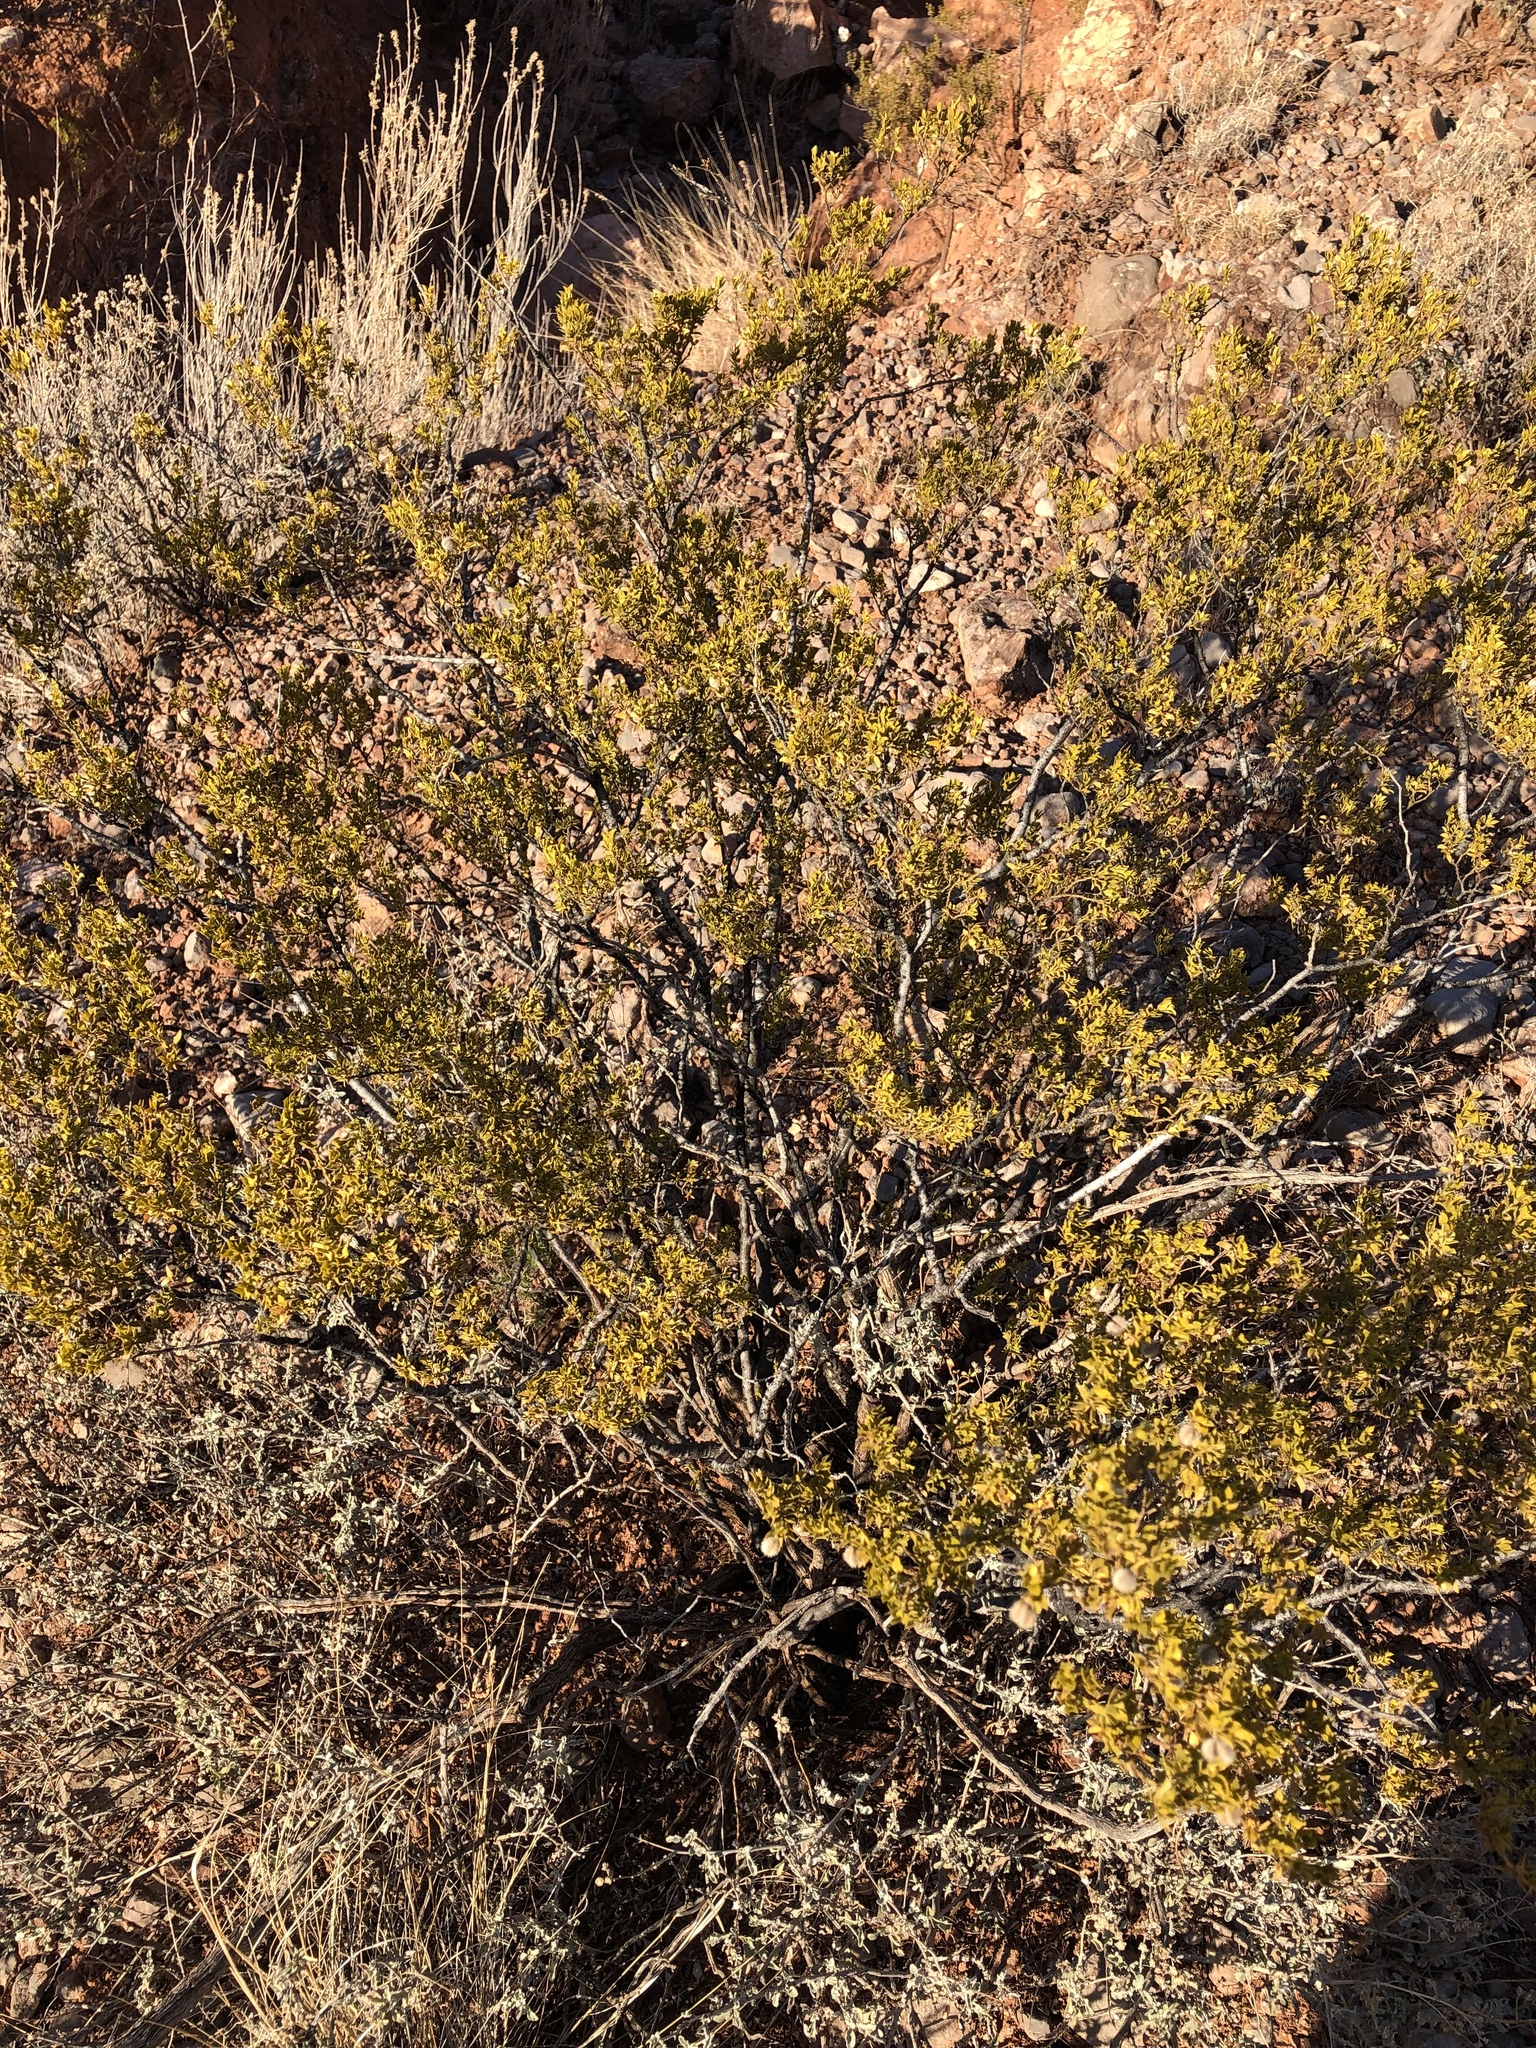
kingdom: Plantae
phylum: Tracheophyta
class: Magnoliopsida
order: Zygophyllales
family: Zygophyllaceae
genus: Larrea
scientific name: Larrea tridentata
